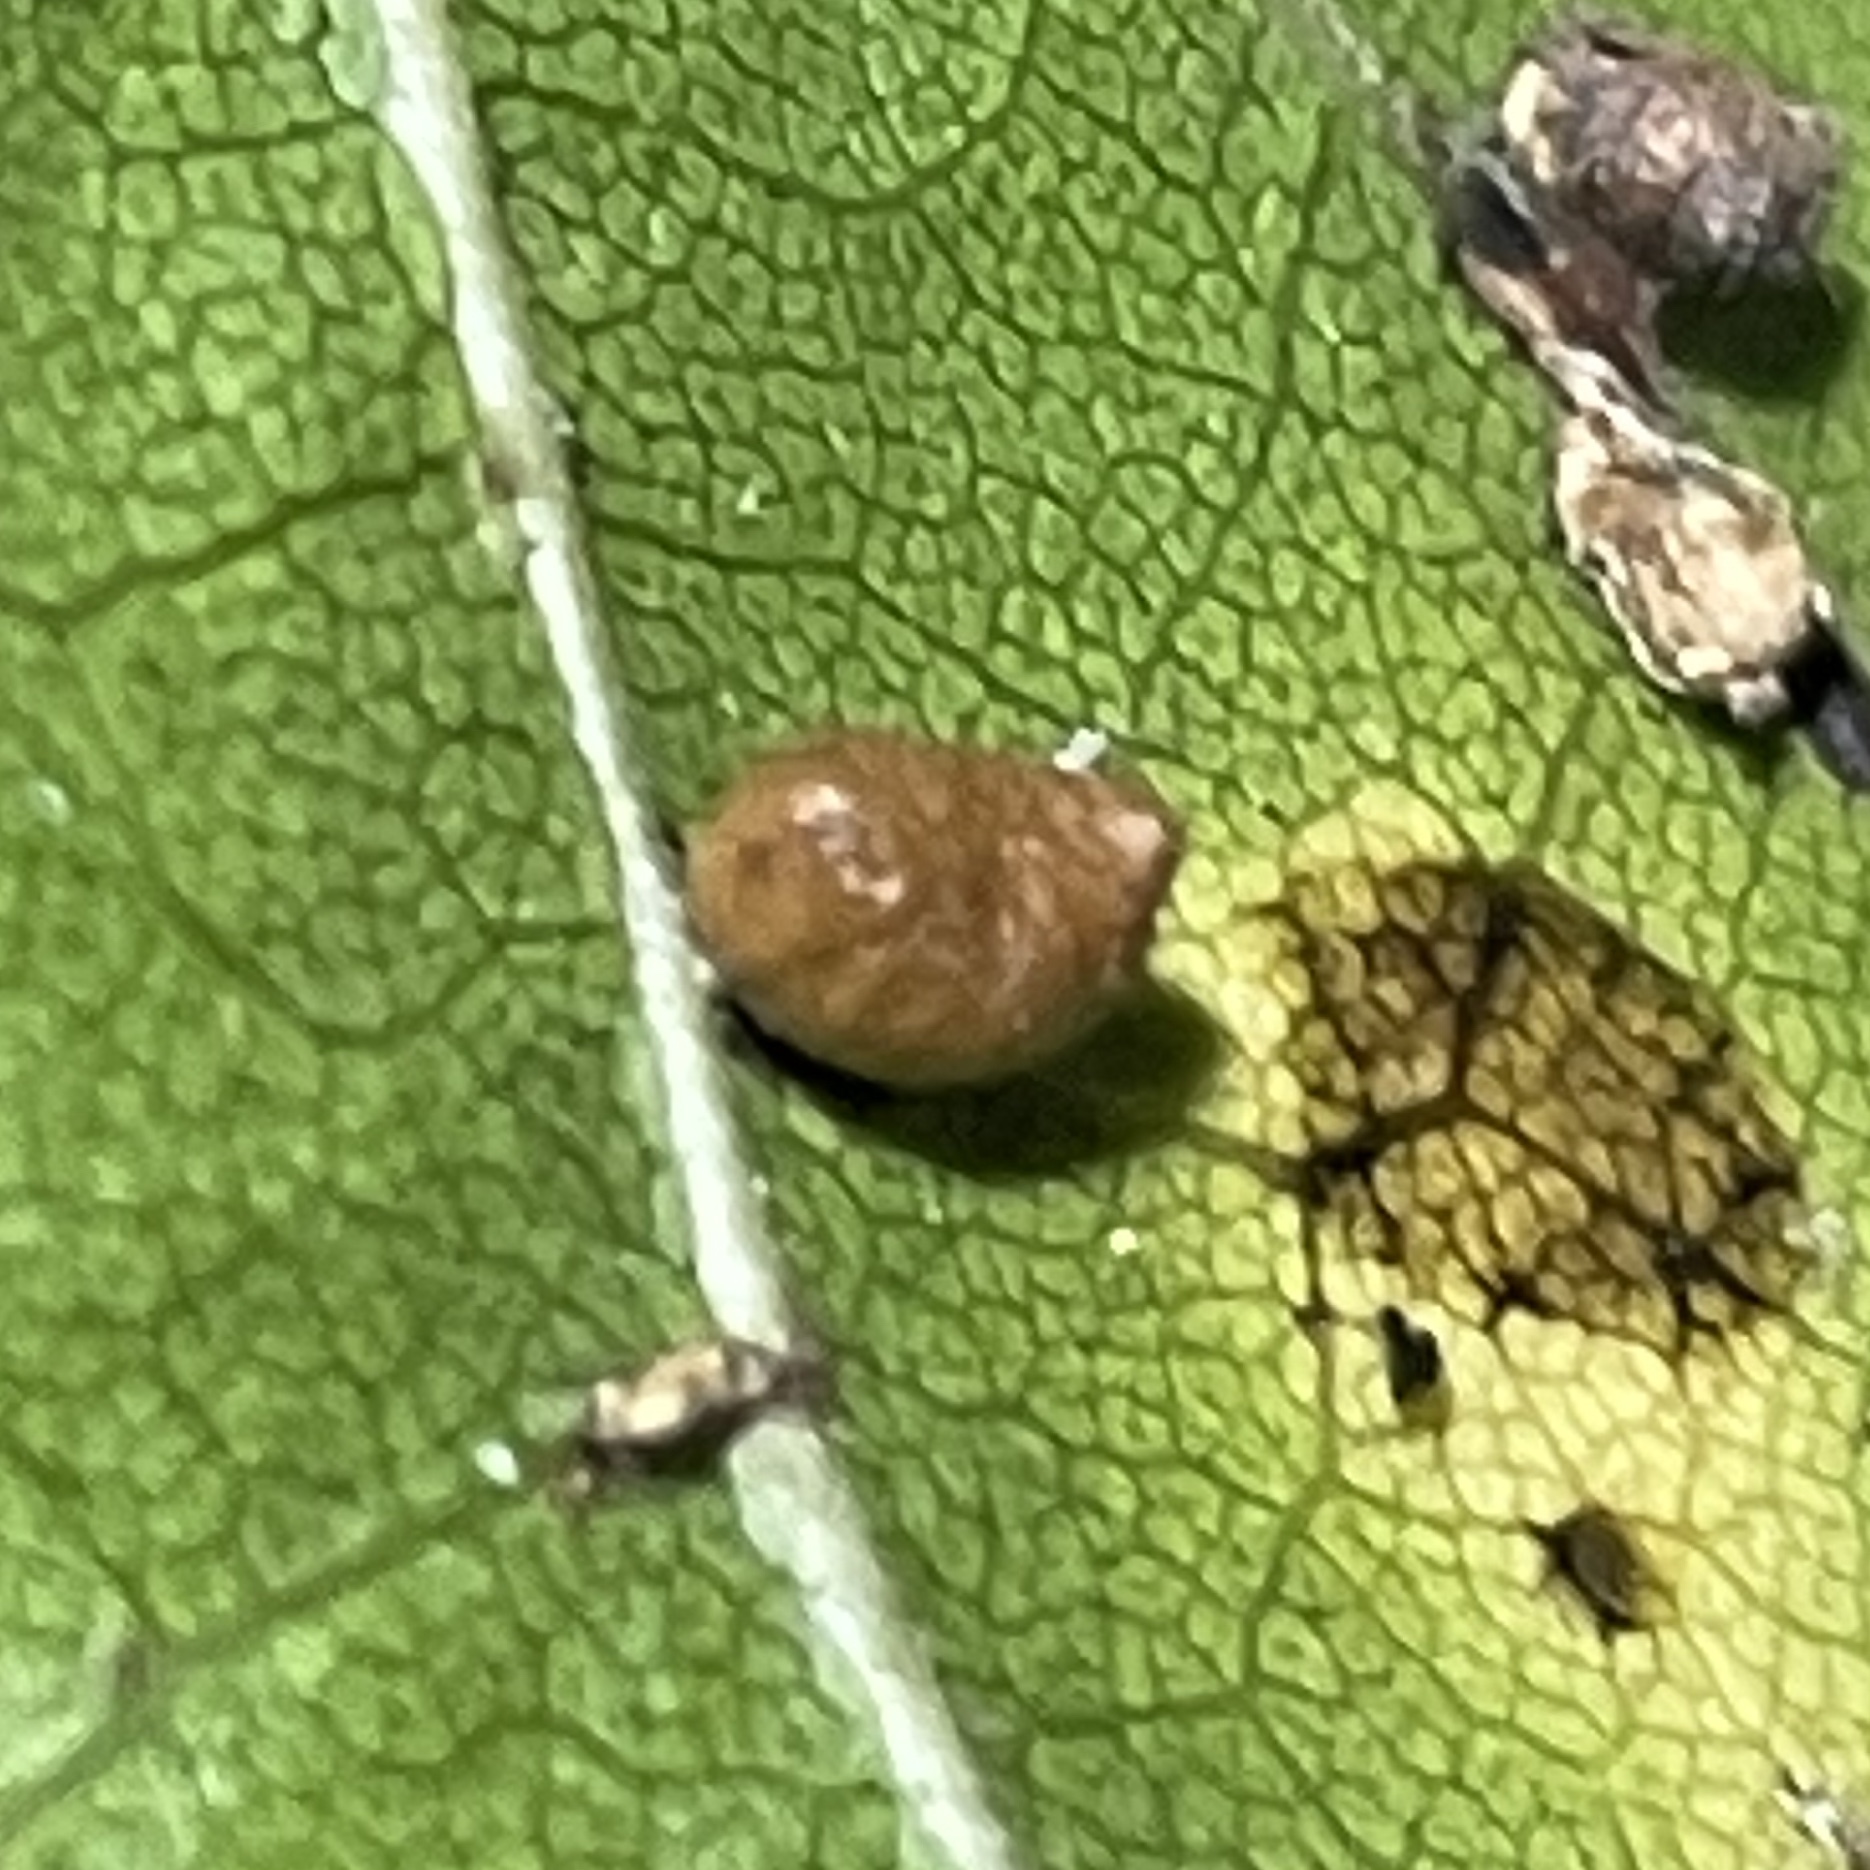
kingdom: Animalia
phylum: Arthropoda
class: Insecta
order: Hymenoptera
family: Cynipidae
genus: Dryocosmus
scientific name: Dryocosmus
